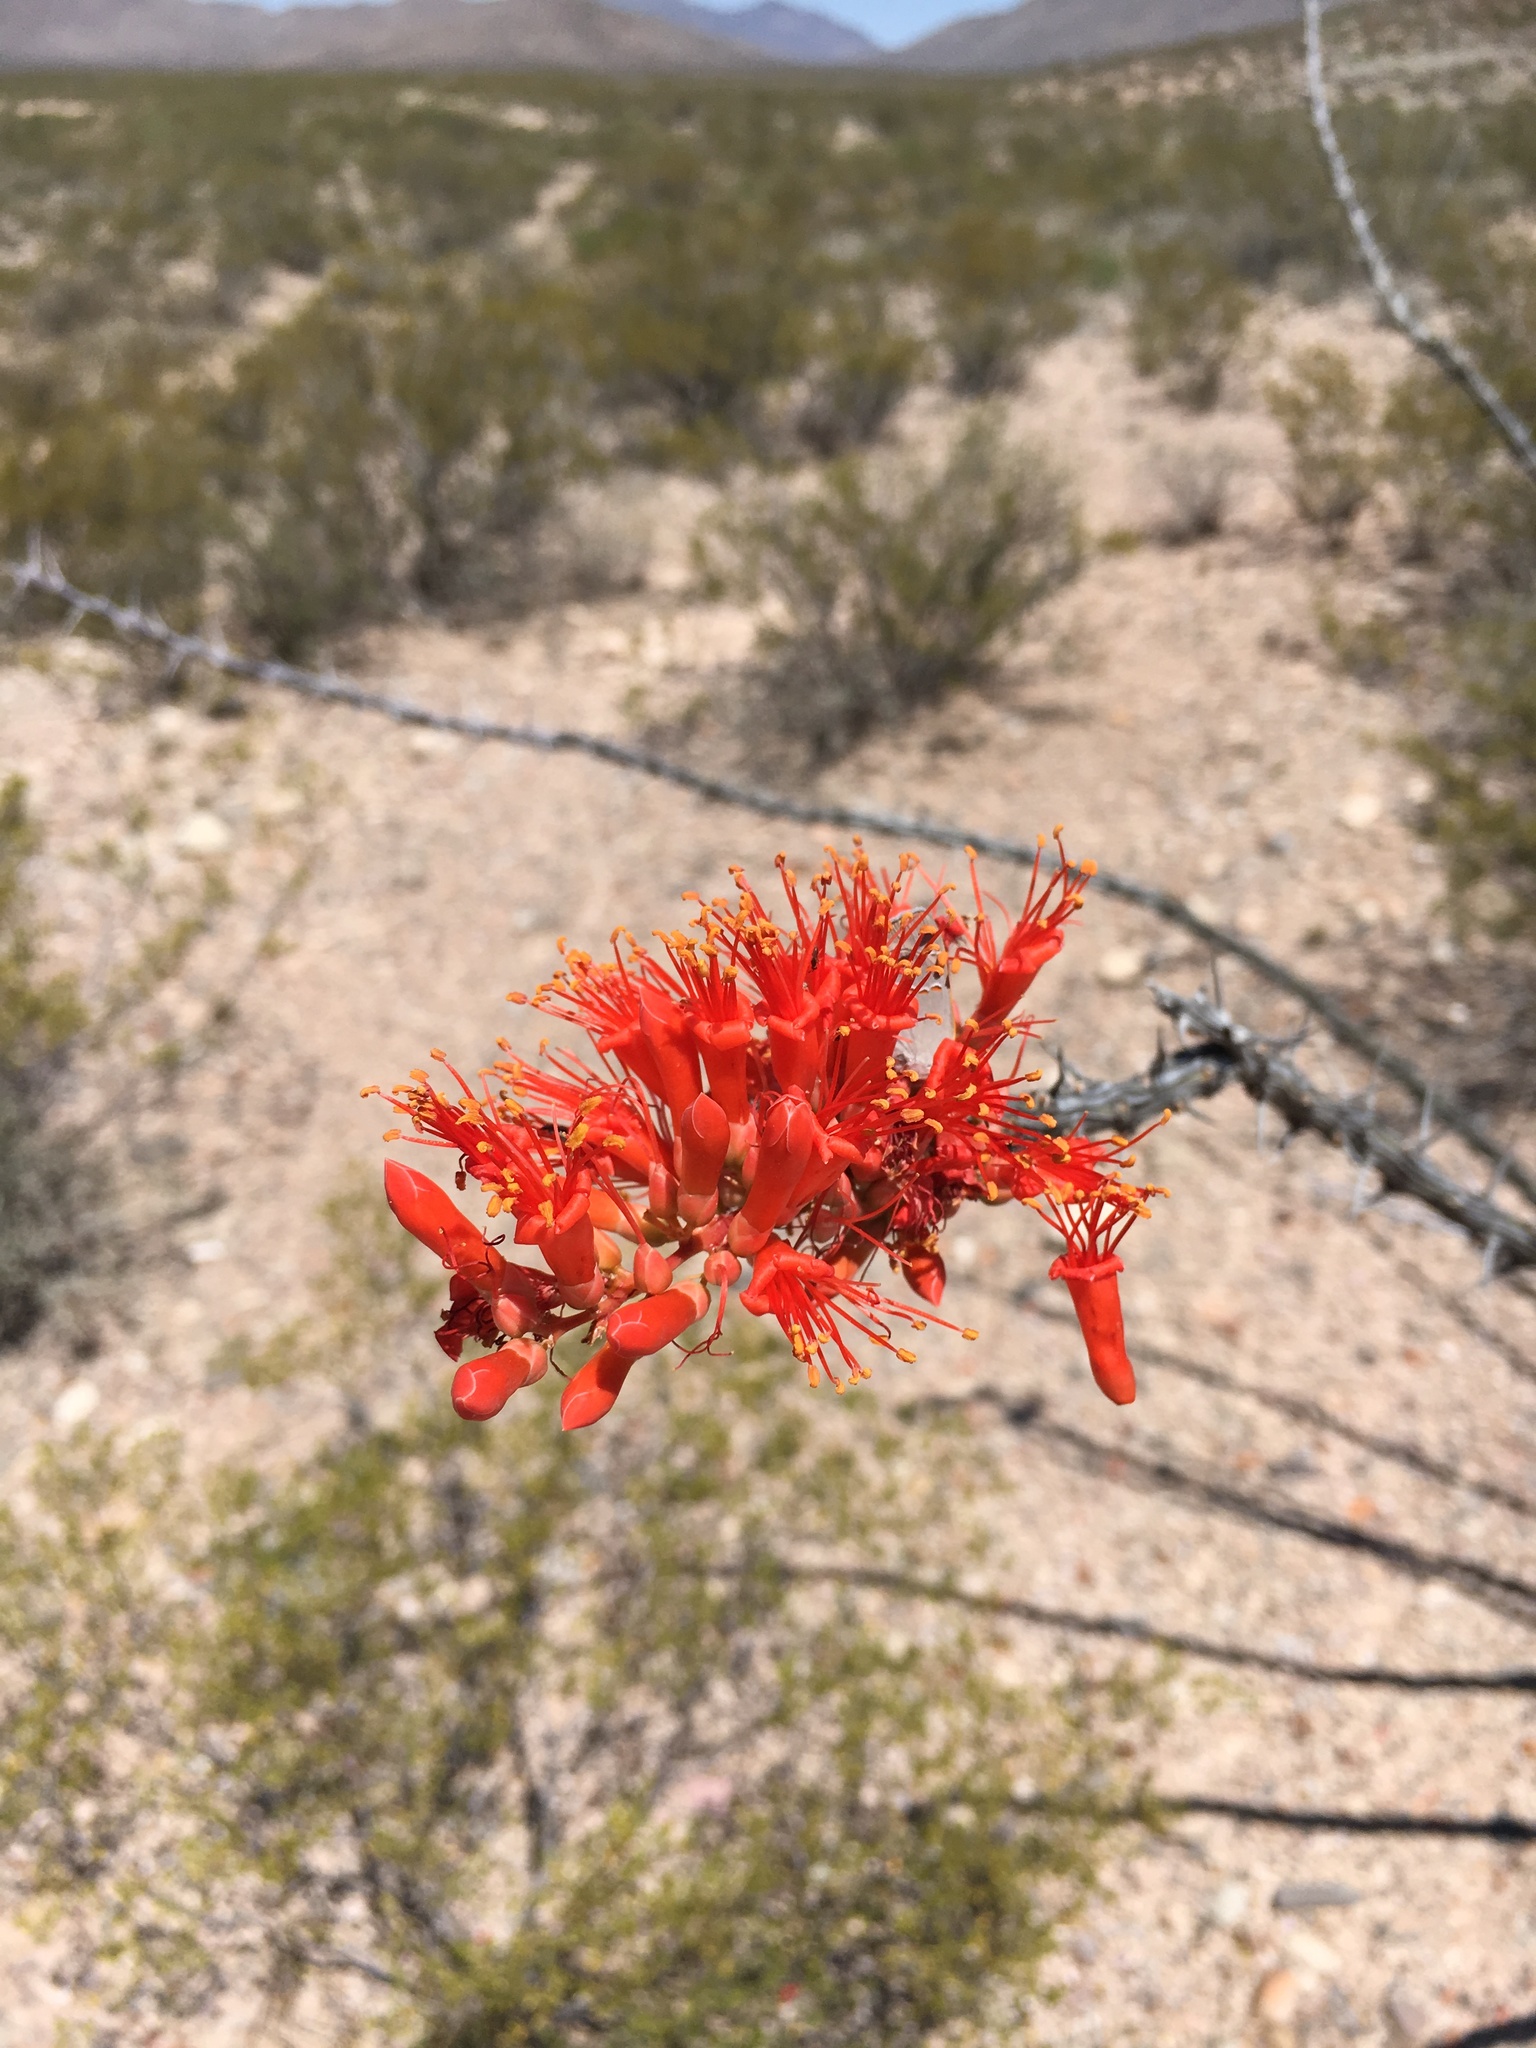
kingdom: Plantae
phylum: Tracheophyta
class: Magnoliopsida
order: Ericales
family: Fouquieriaceae
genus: Fouquieria
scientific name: Fouquieria splendens
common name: Vine-cactus
